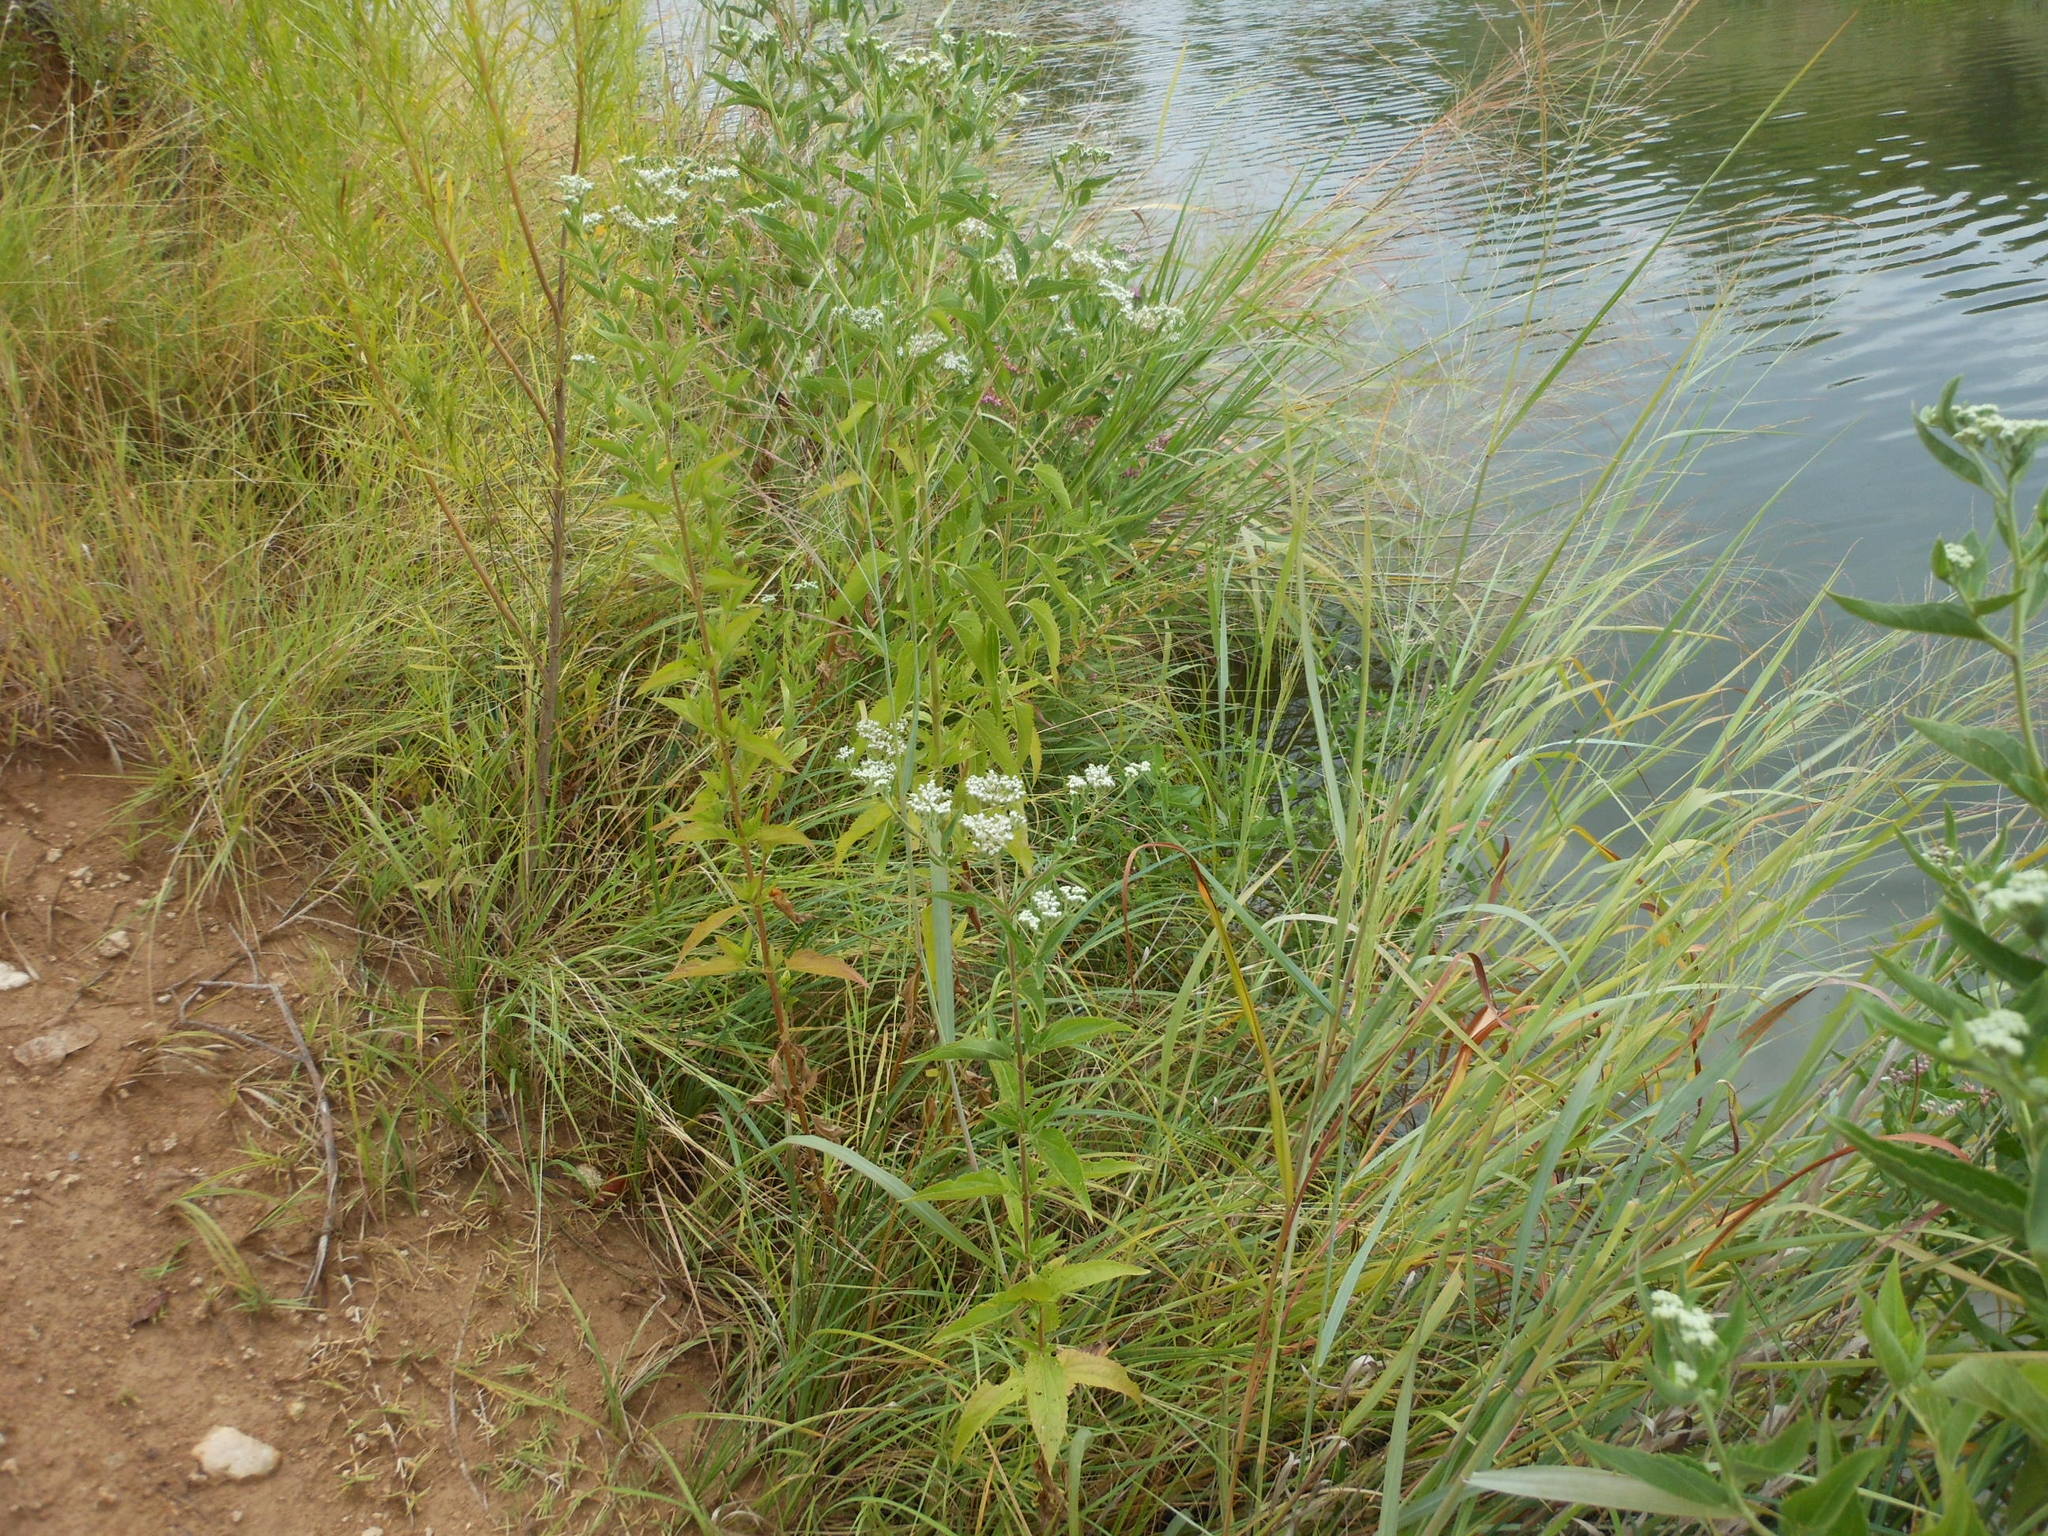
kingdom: Plantae
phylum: Tracheophyta
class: Magnoliopsida
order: Asterales
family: Asteraceae
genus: Eupatorium
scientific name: Eupatorium serotinum
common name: Late boneset
